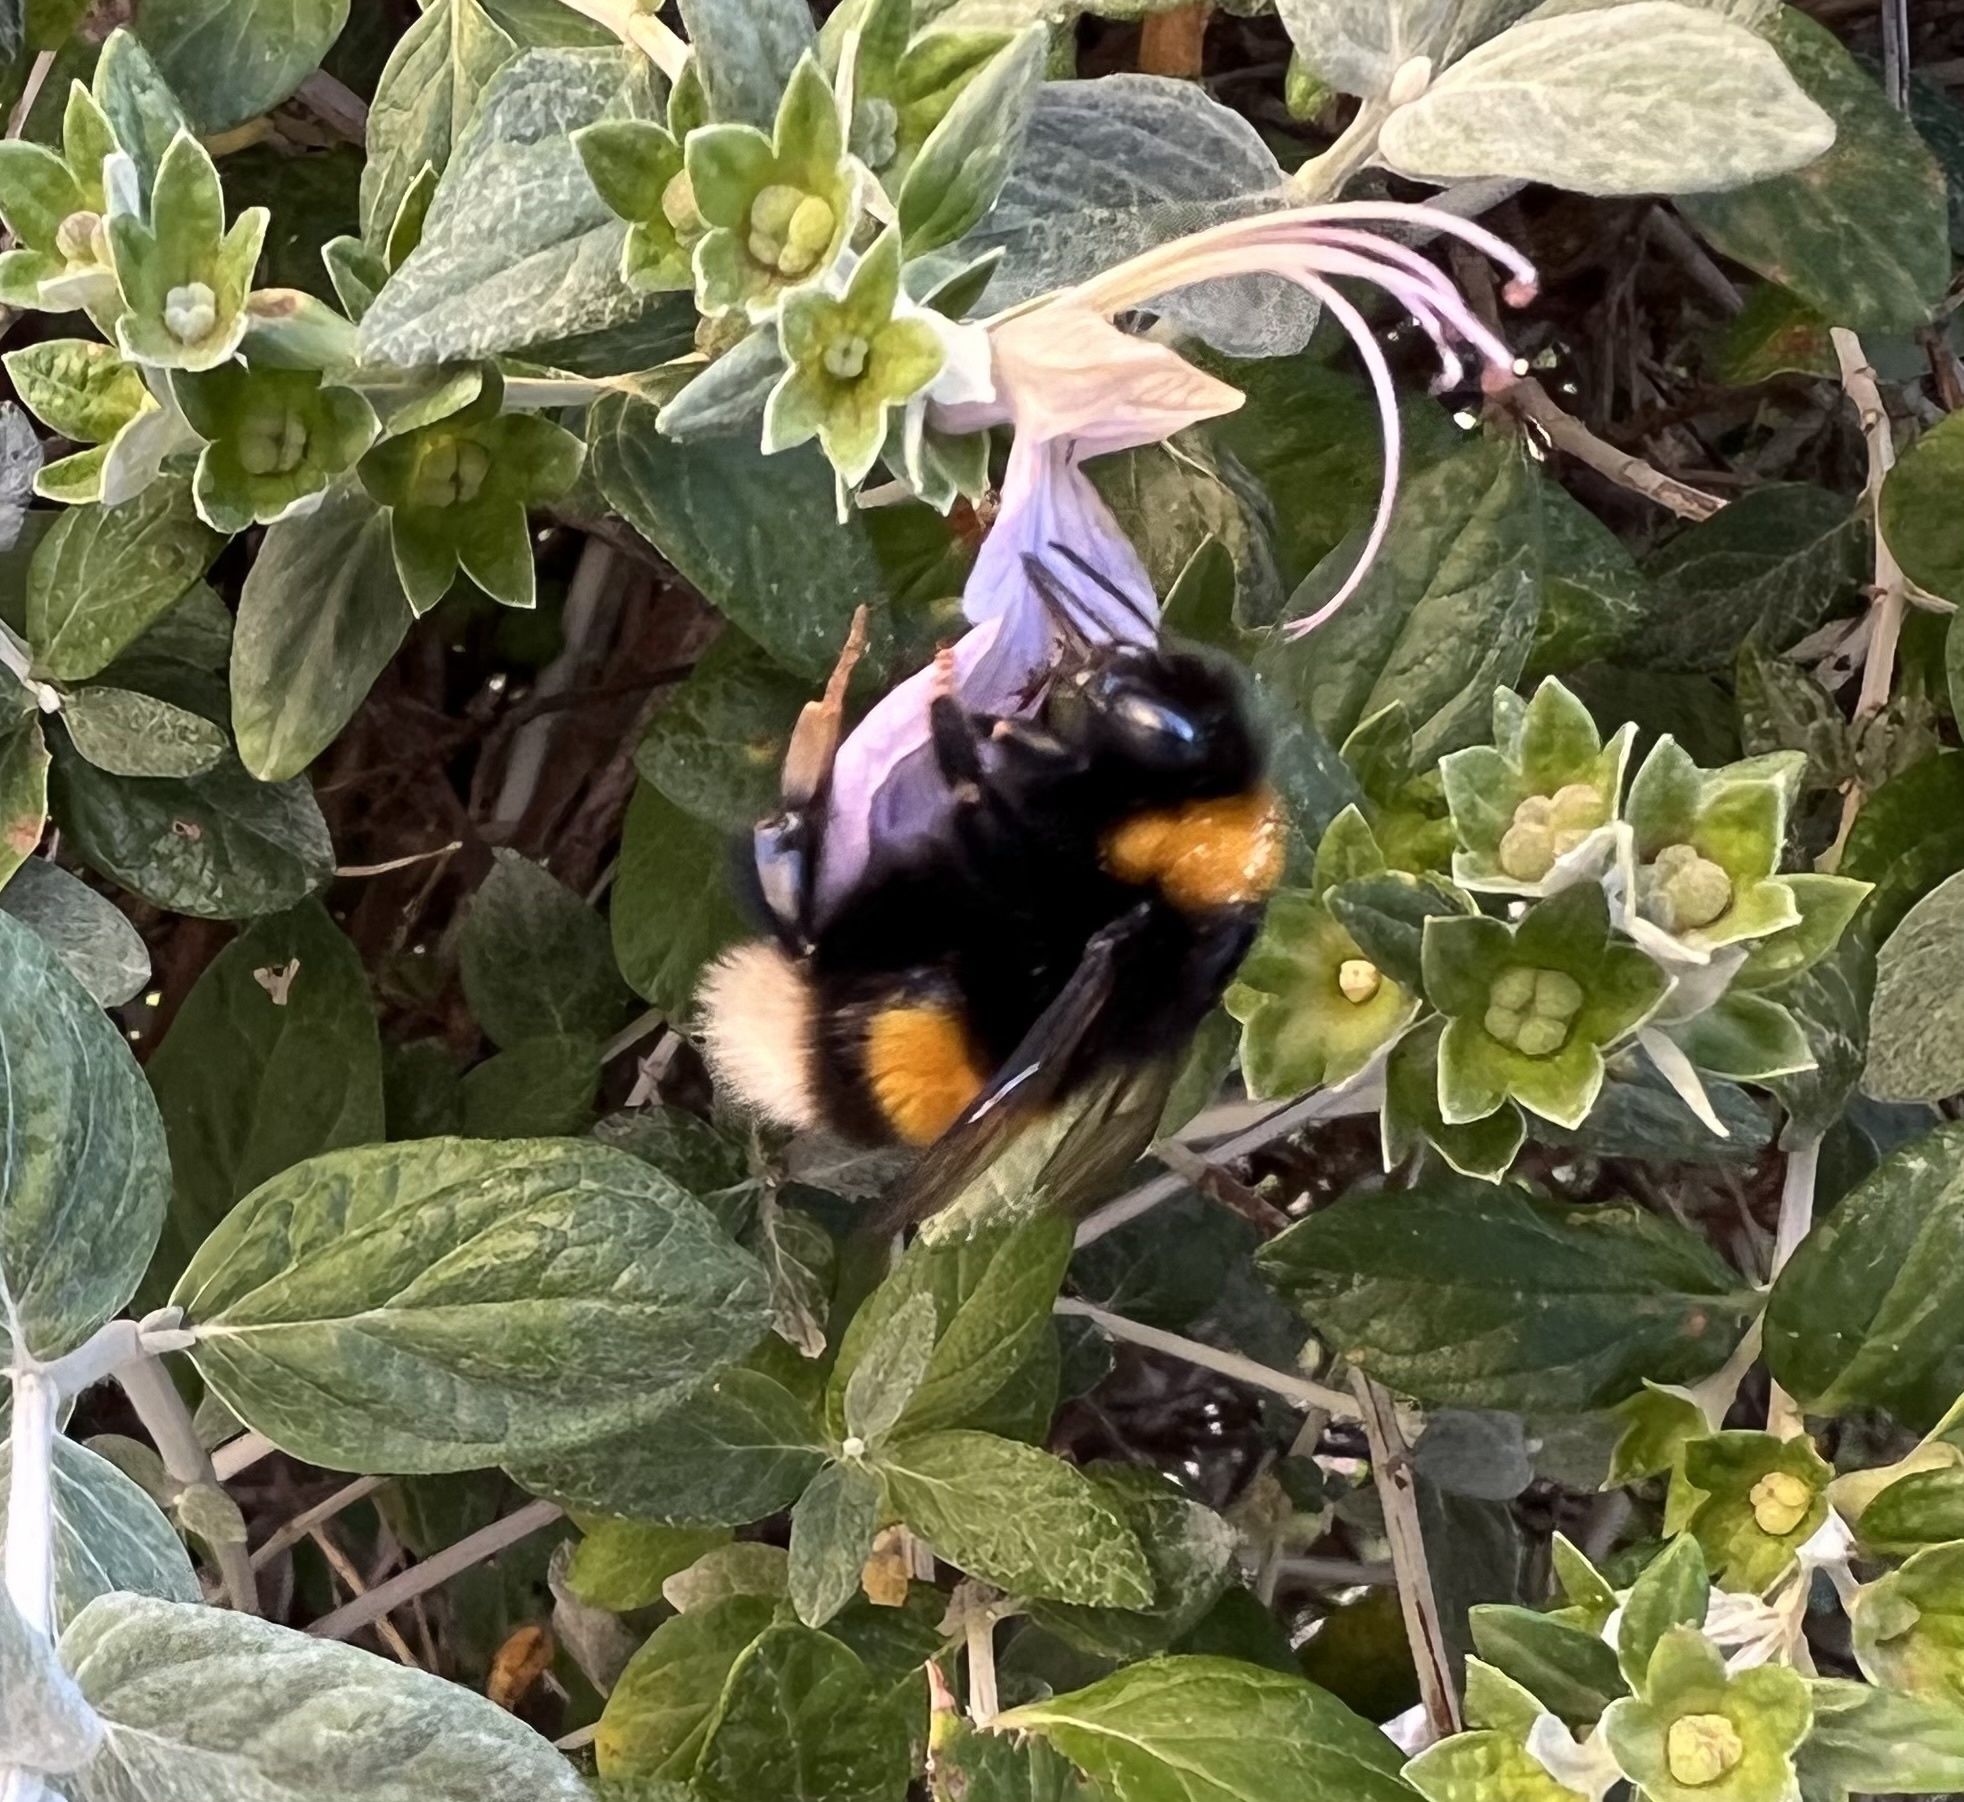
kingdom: Animalia
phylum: Arthropoda
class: Insecta
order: Hymenoptera
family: Apidae
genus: Bombus
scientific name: Bombus terrestris
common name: Buff-tailed bumblebee
